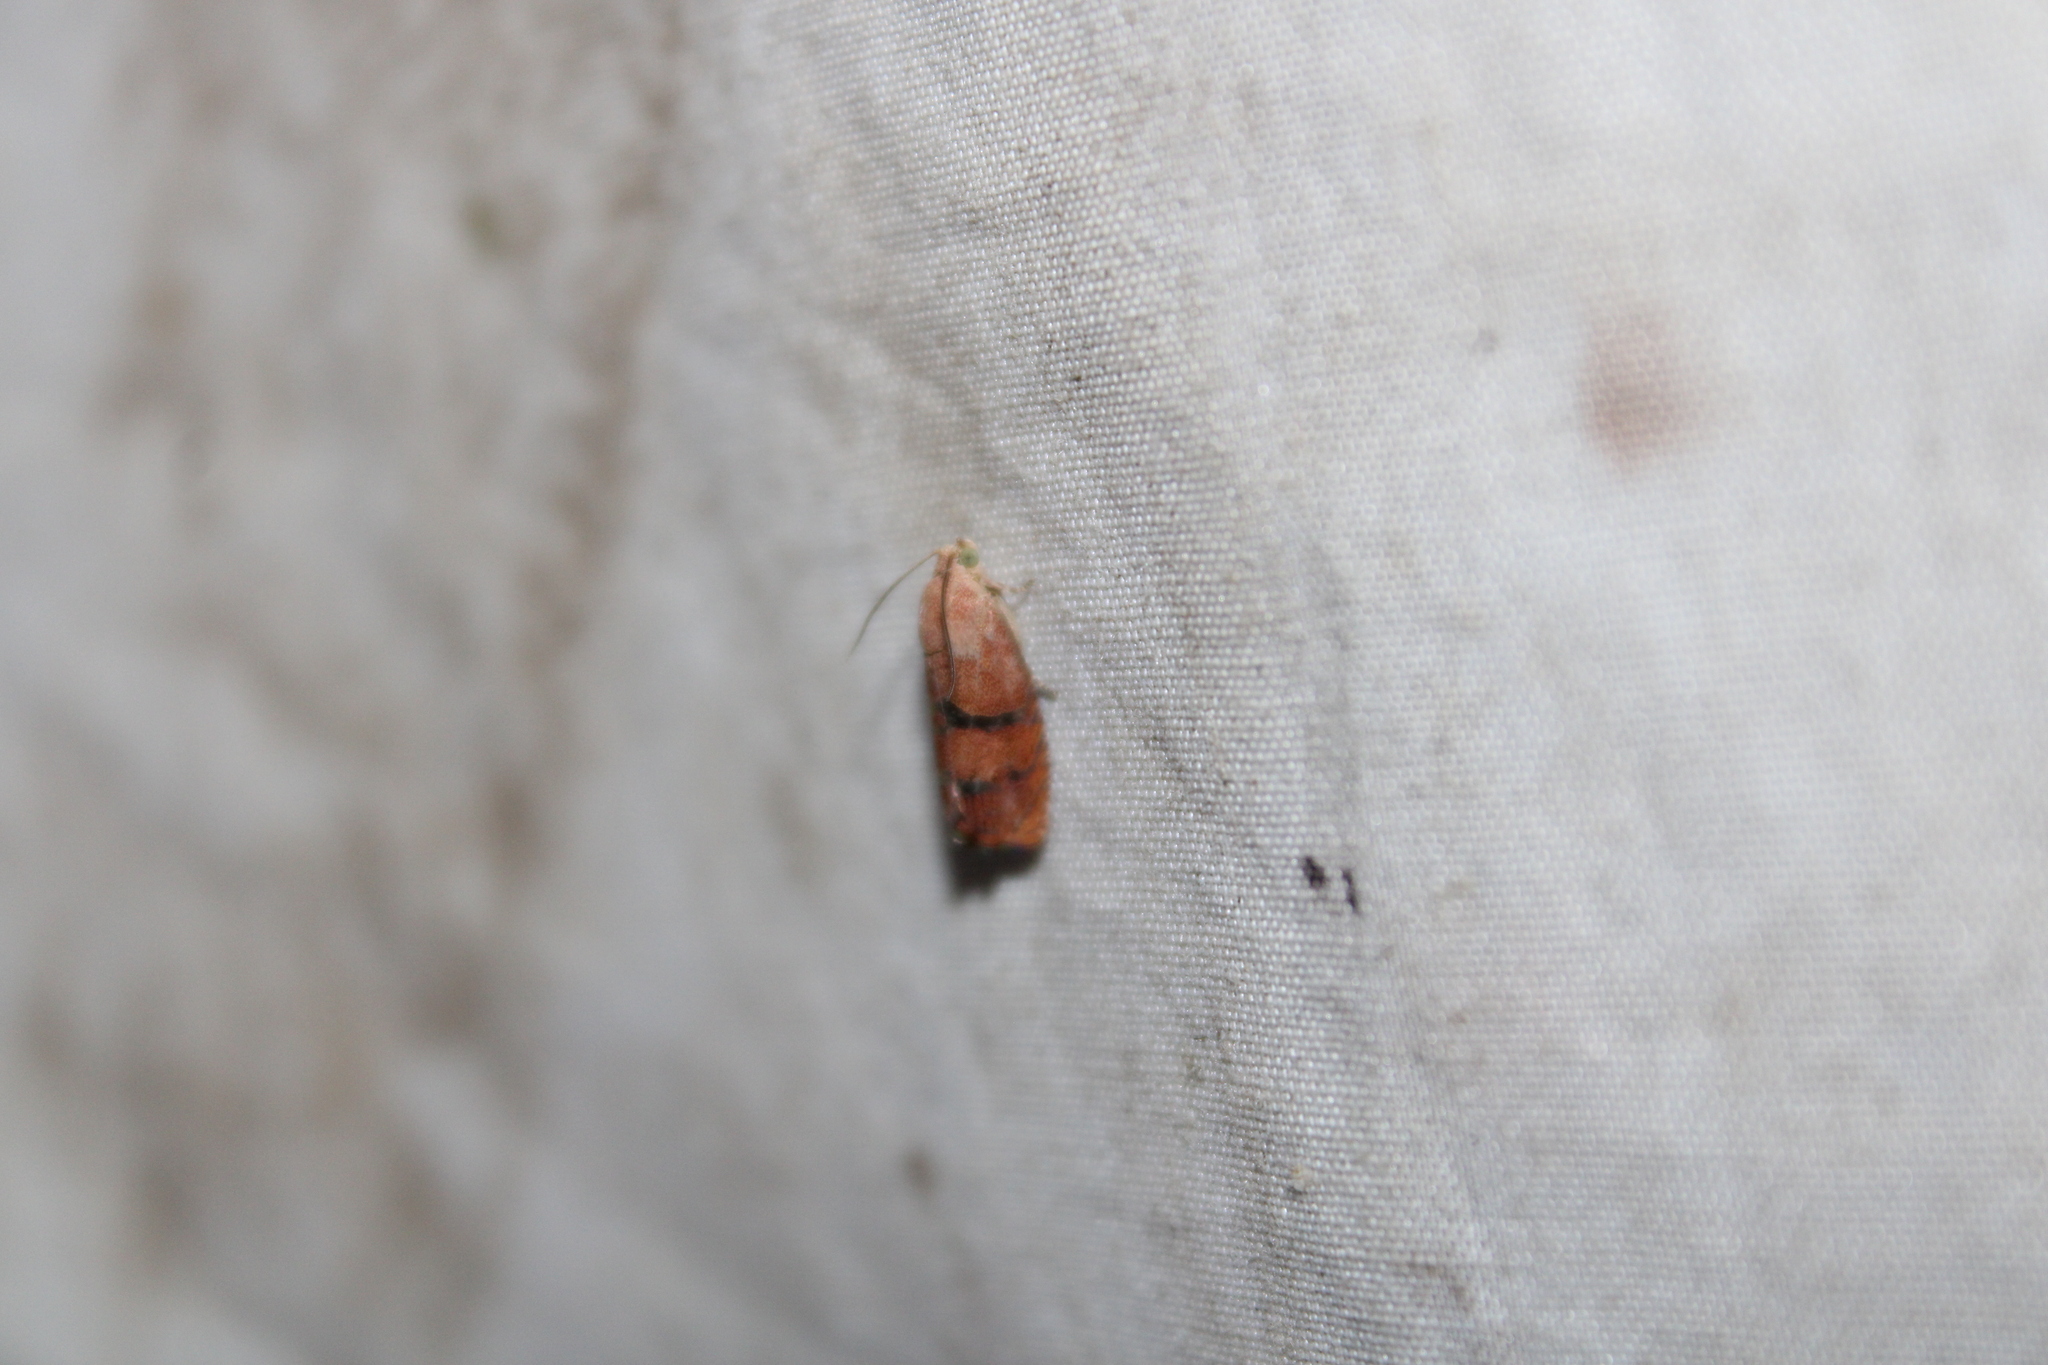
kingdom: Animalia
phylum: Arthropoda
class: Insecta
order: Lepidoptera
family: Tortricidae
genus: Cydia
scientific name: Cydia latiferreana
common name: Filbertworm moth
